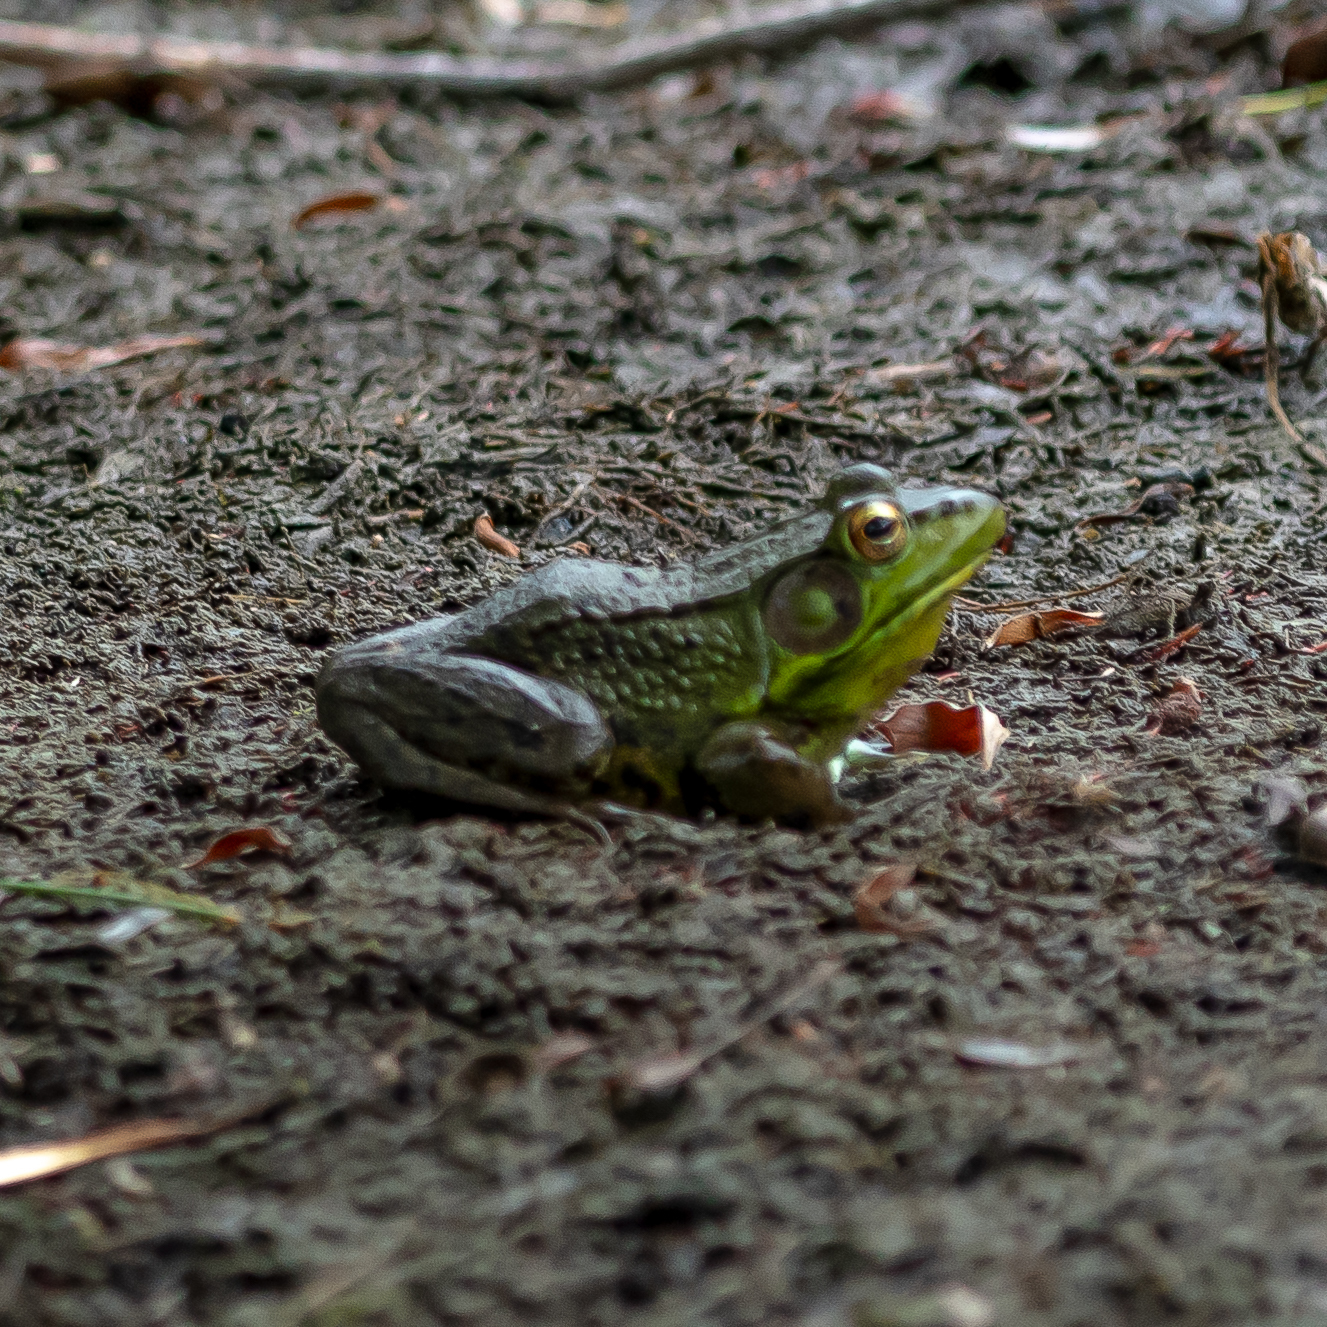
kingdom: Animalia
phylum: Chordata
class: Amphibia
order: Anura
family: Ranidae
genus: Lithobates
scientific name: Lithobates clamitans
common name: Green frog
